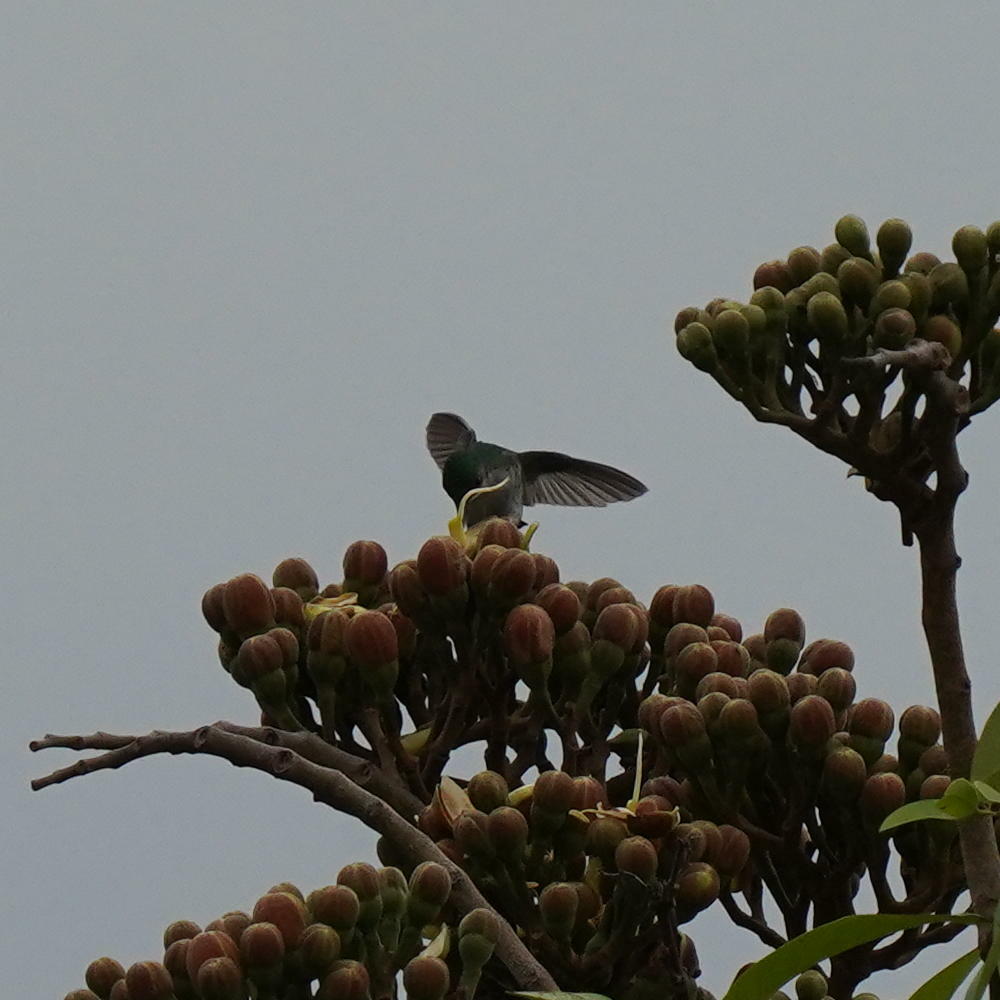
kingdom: Animalia
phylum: Chordata
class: Aves
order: Apodiformes
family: Trochilidae
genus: Chlorestes
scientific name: Chlorestes julie
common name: Violet-bellied hummingbird
